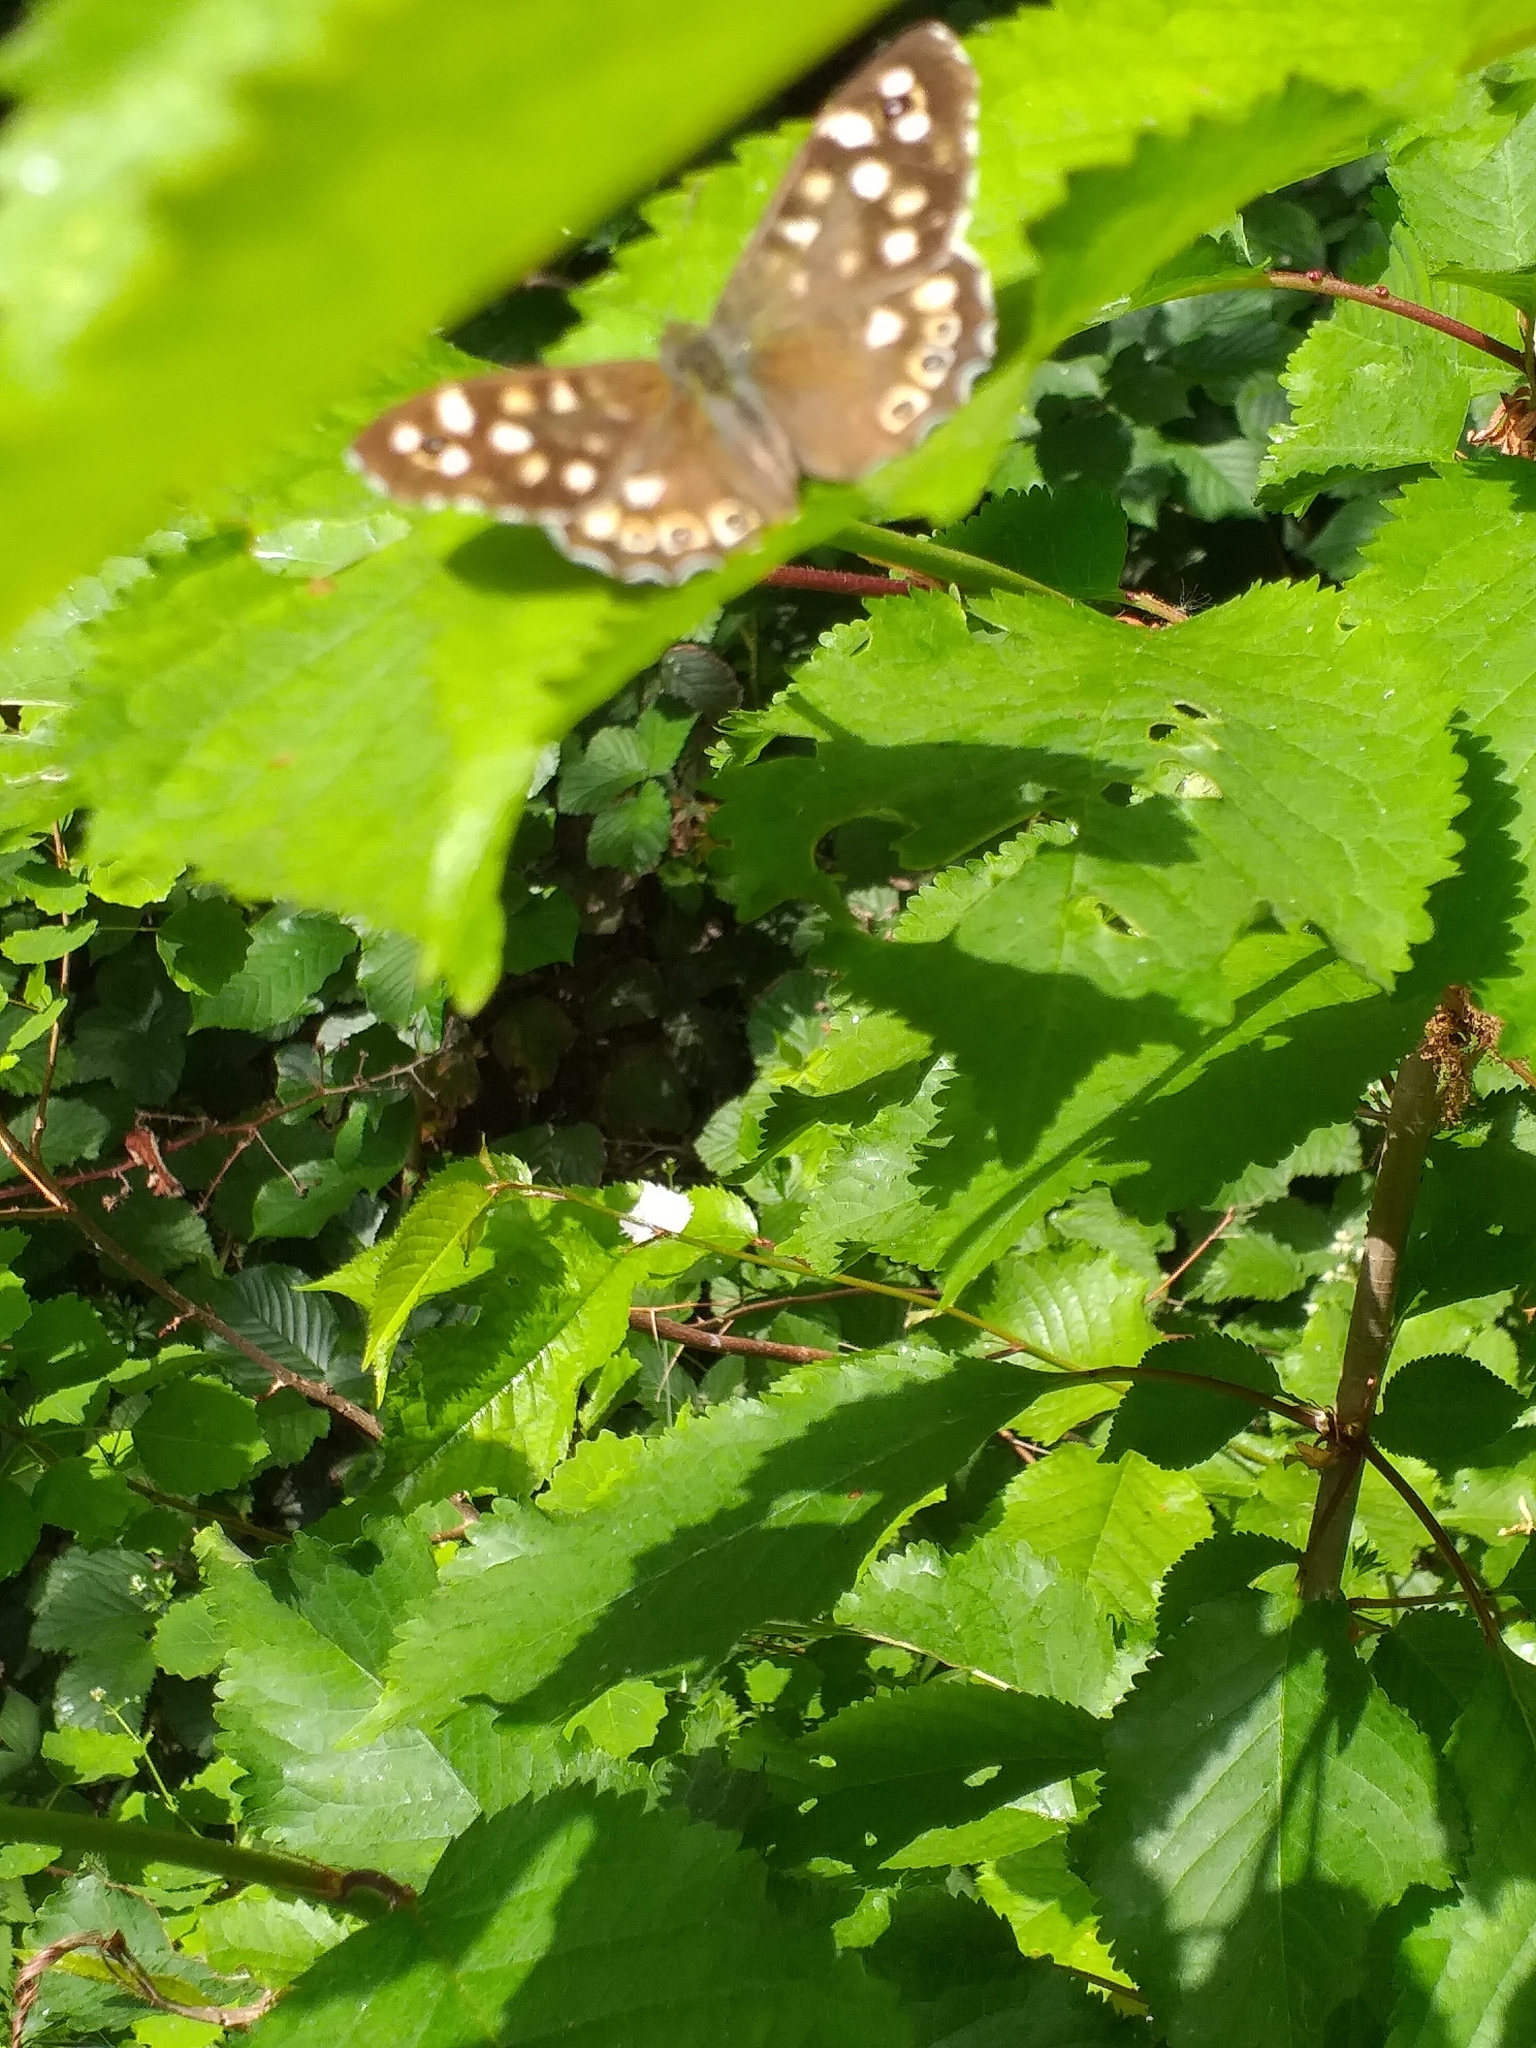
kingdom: Animalia
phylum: Arthropoda
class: Insecta
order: Lepidoptera
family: Nymphalidae
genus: Pararge
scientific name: Pararge aegeria
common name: Speckled wood
